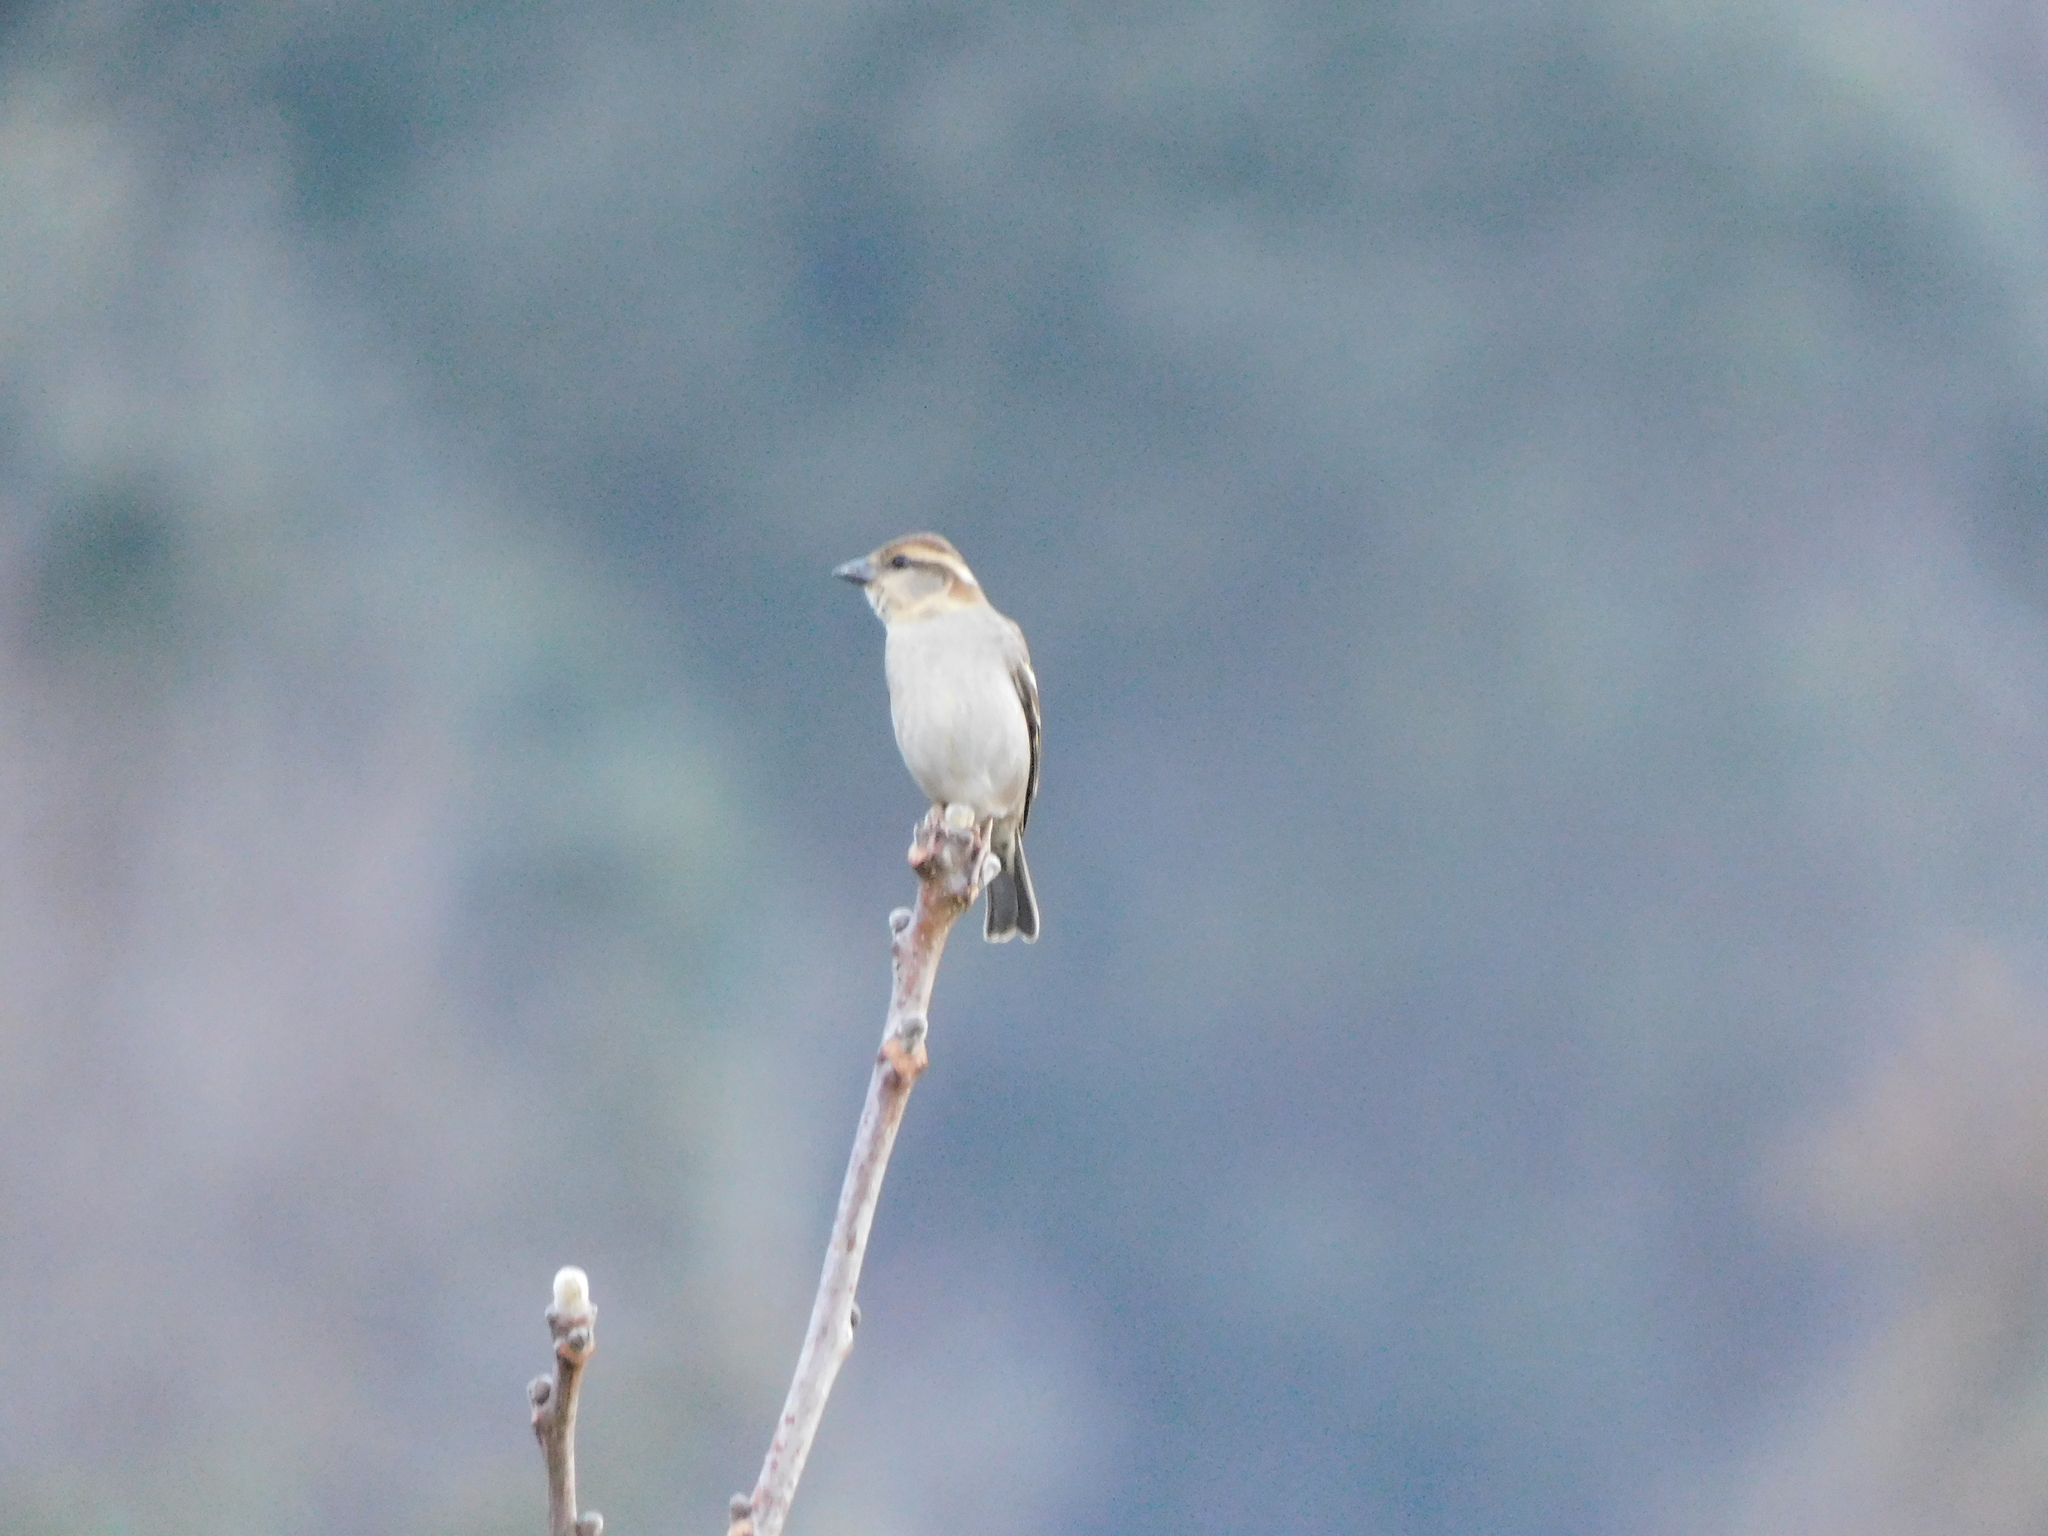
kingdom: Animalia
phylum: Chordata
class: Aves
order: Passeriformes
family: Passeridae
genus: Passer
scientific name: Passer cinnamomeus
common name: Russet sparrow
